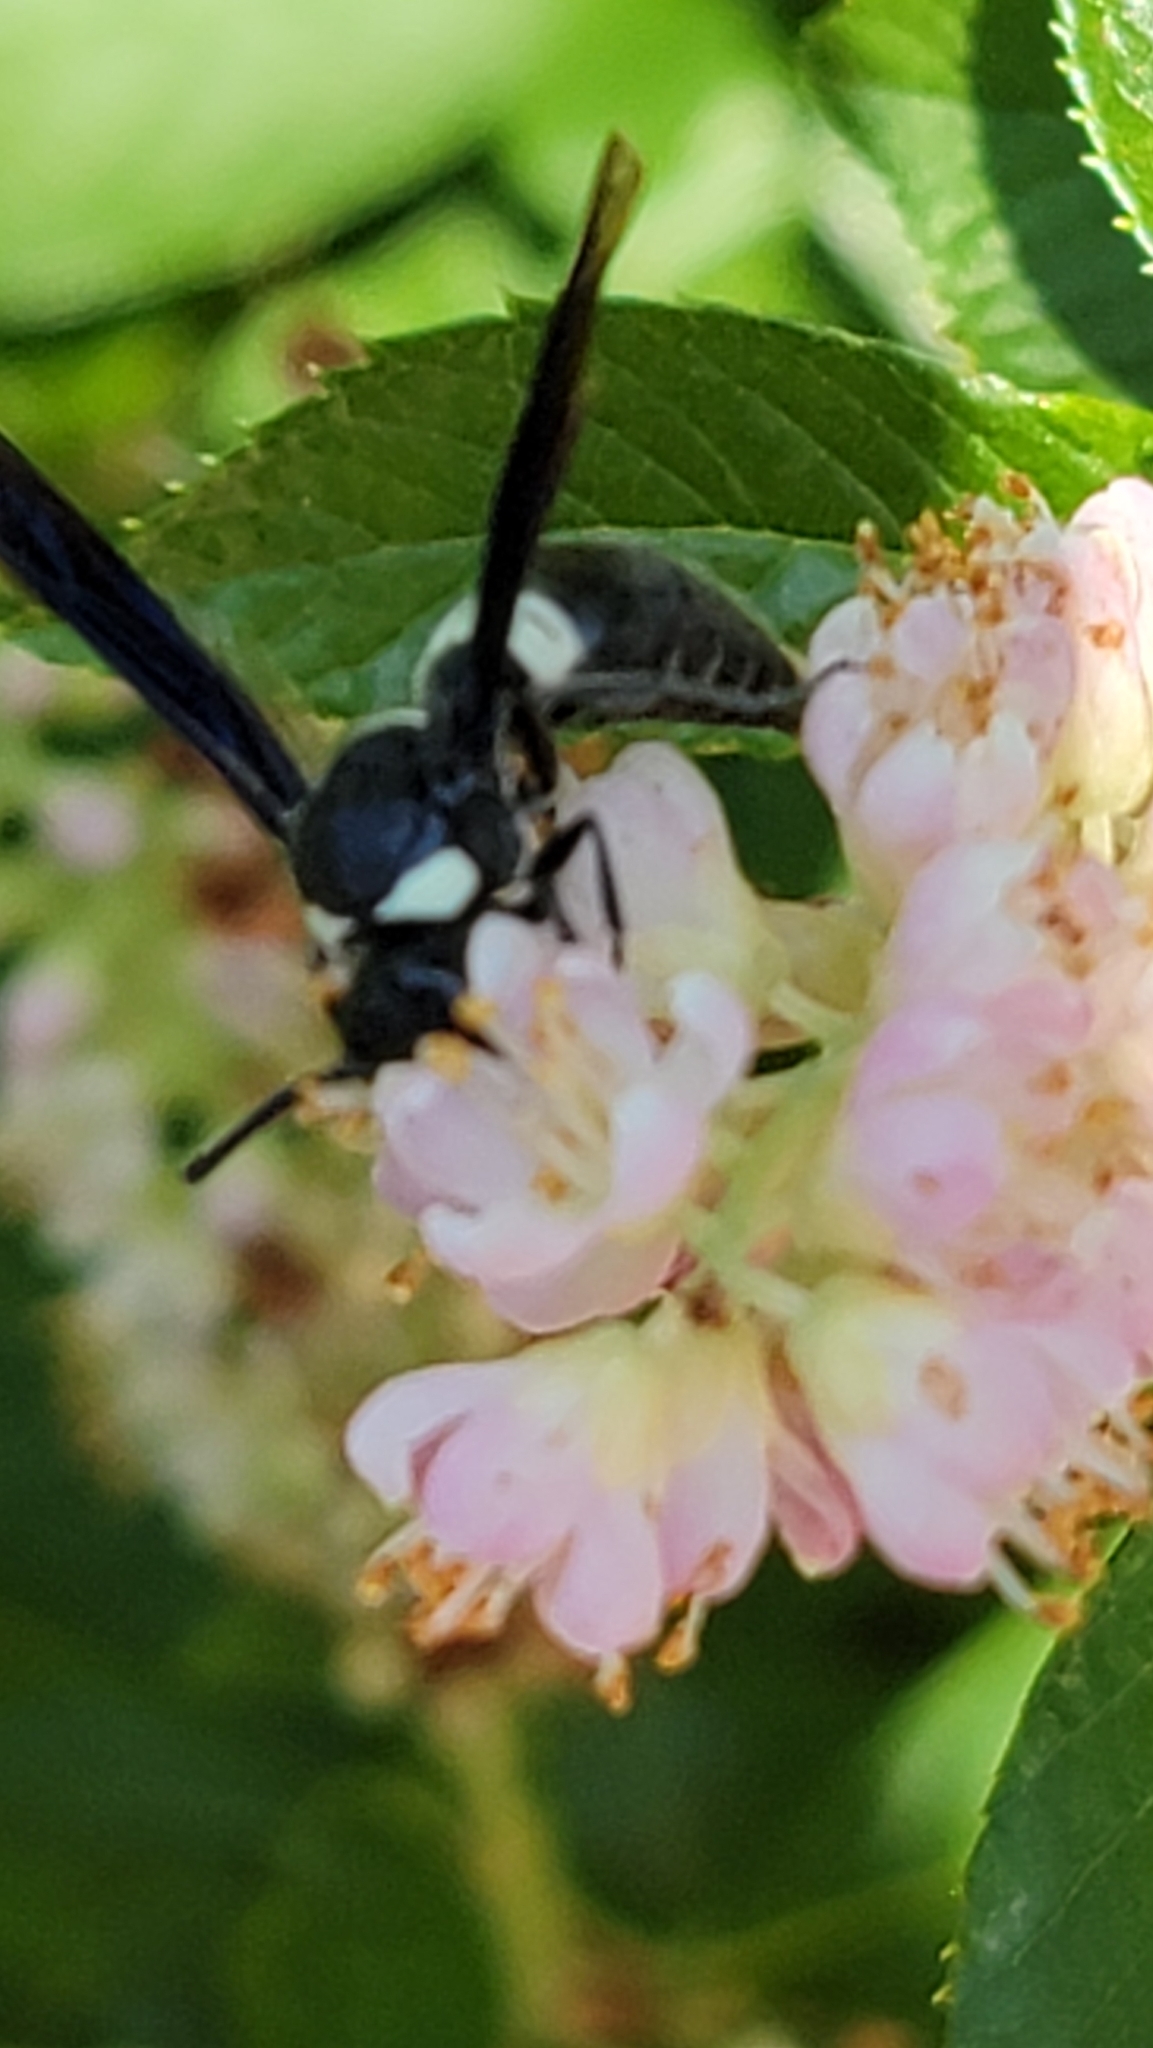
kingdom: Animalia
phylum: Arthropoda
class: Insecta
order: Hymenoptera
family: Eumenidae
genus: Monobia
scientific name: Monobia quadridens
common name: Four-toothed mason wasp
